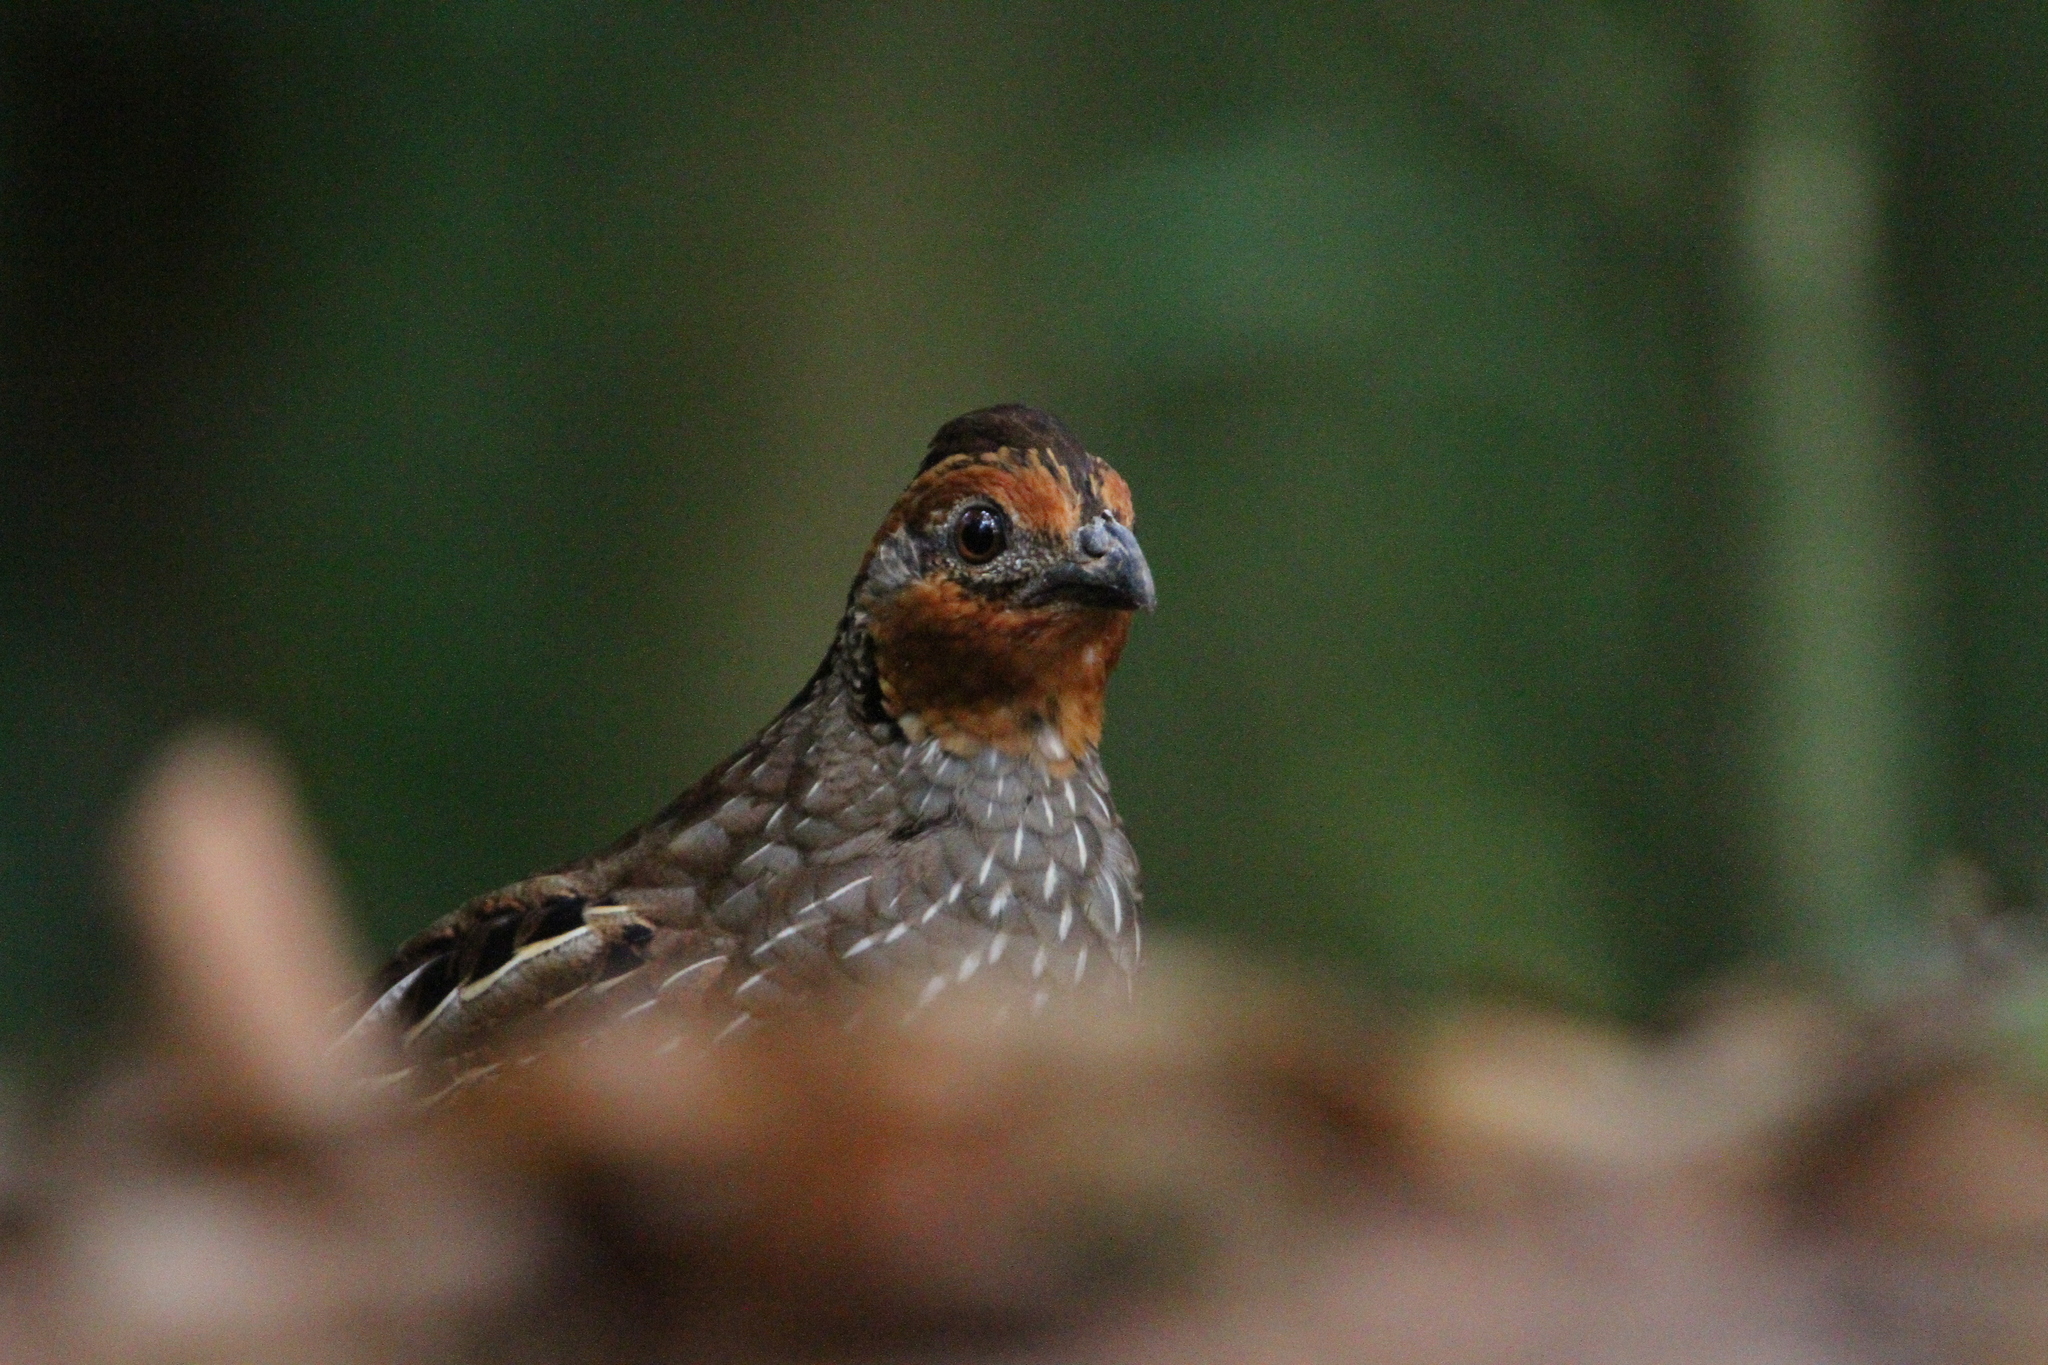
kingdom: Animalia
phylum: Chordata
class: Aves
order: Galliformes
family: Odontophoridae
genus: Dactylortyx
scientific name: Dactylortyx thoracicus
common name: Singing quail
